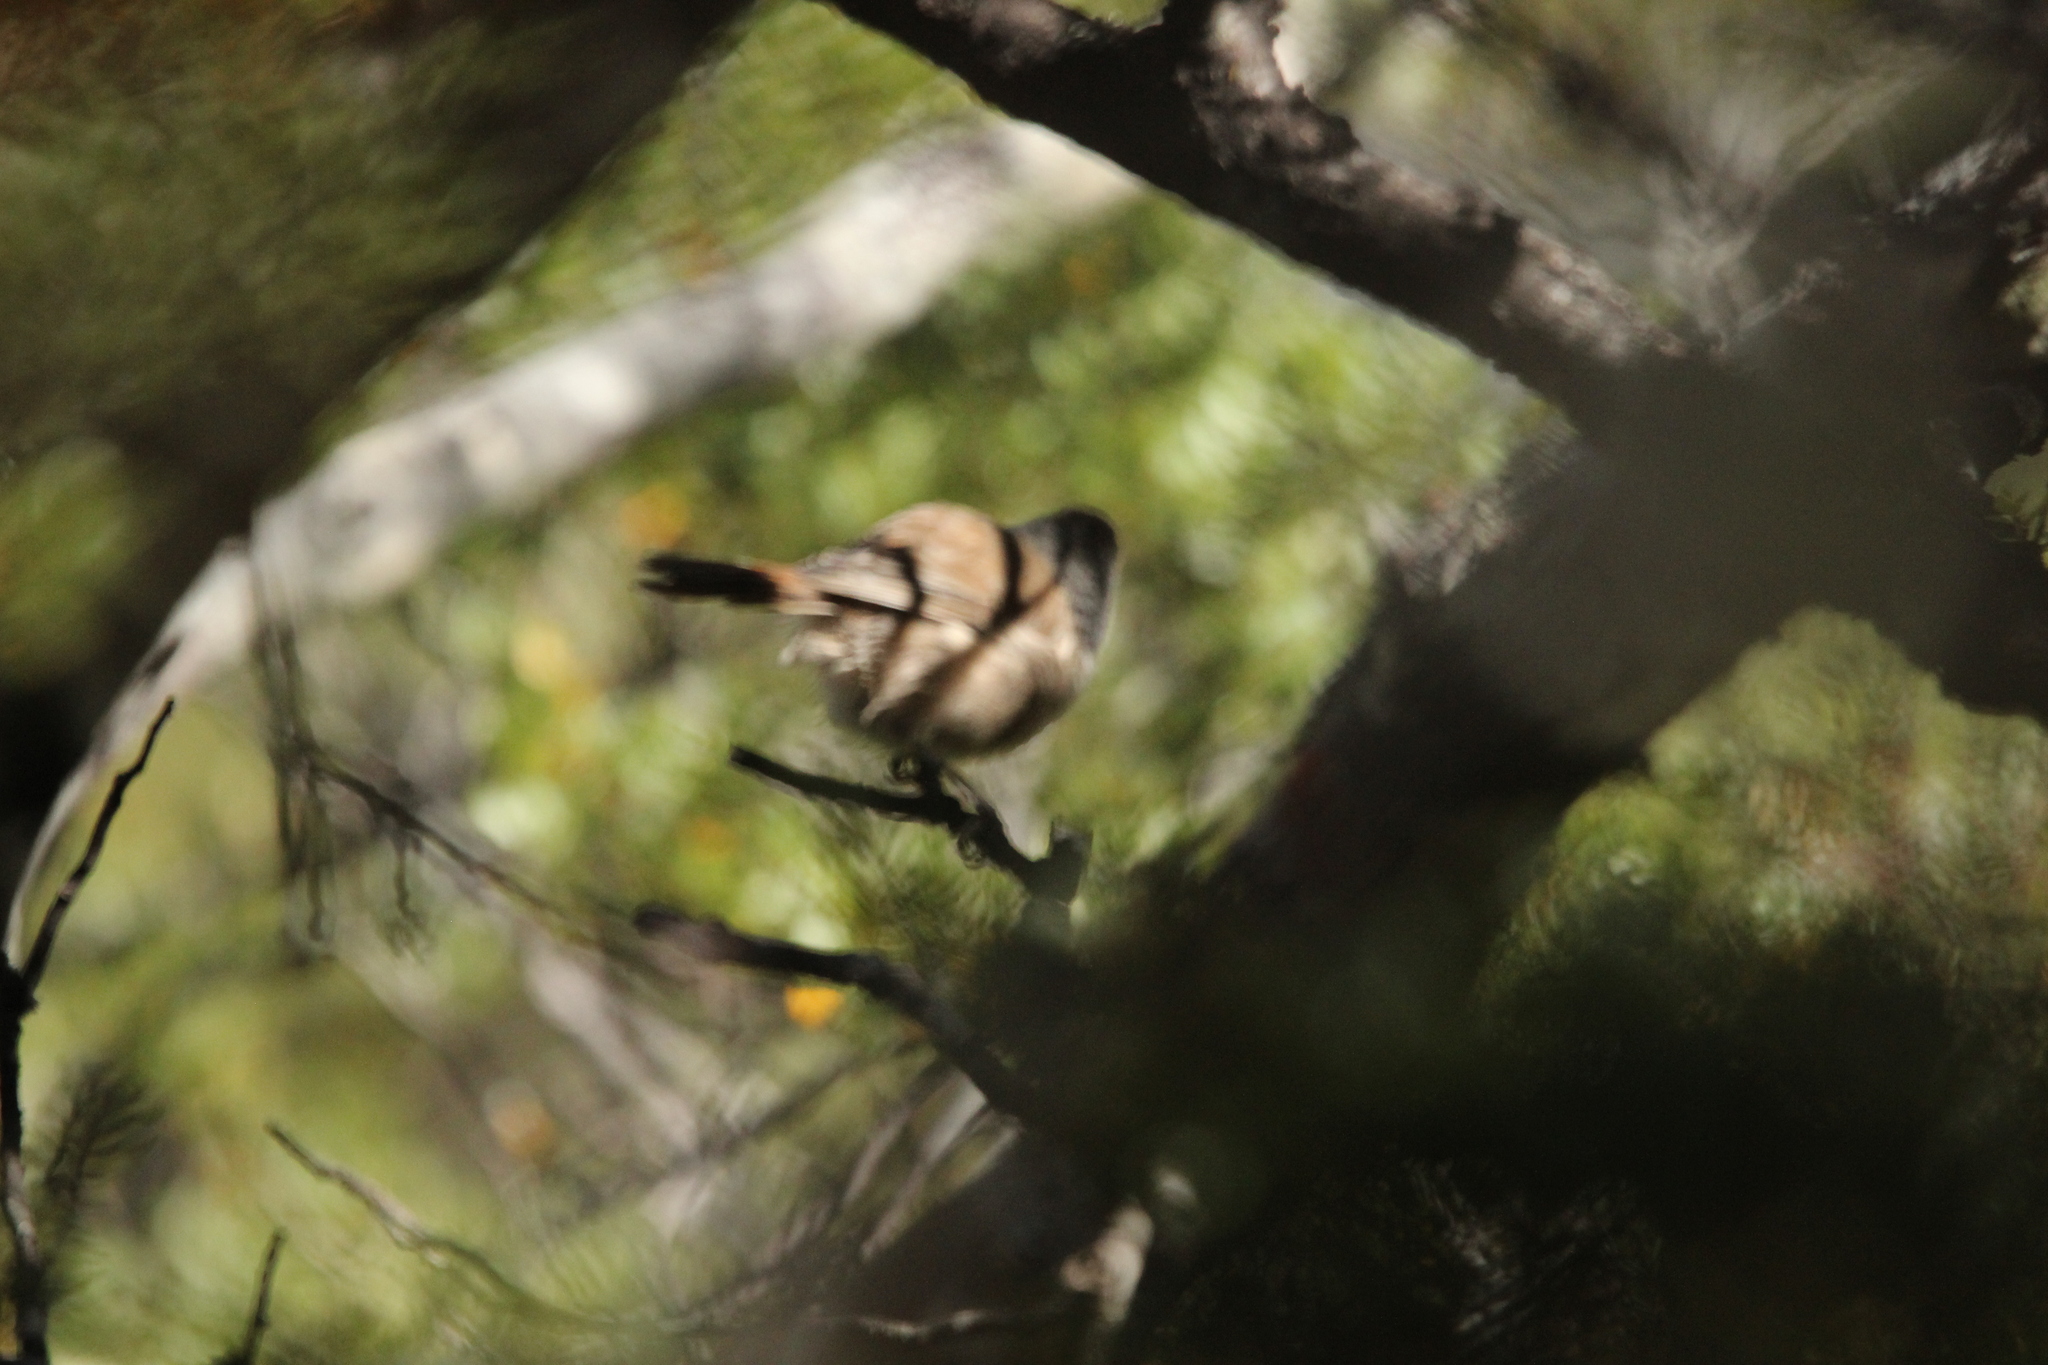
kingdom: Animalia
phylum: Chordata
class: Aves
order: Passeriformes
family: Acanthizidae
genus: Finschia
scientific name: Finschia novaeseelandiae
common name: Pipipi
